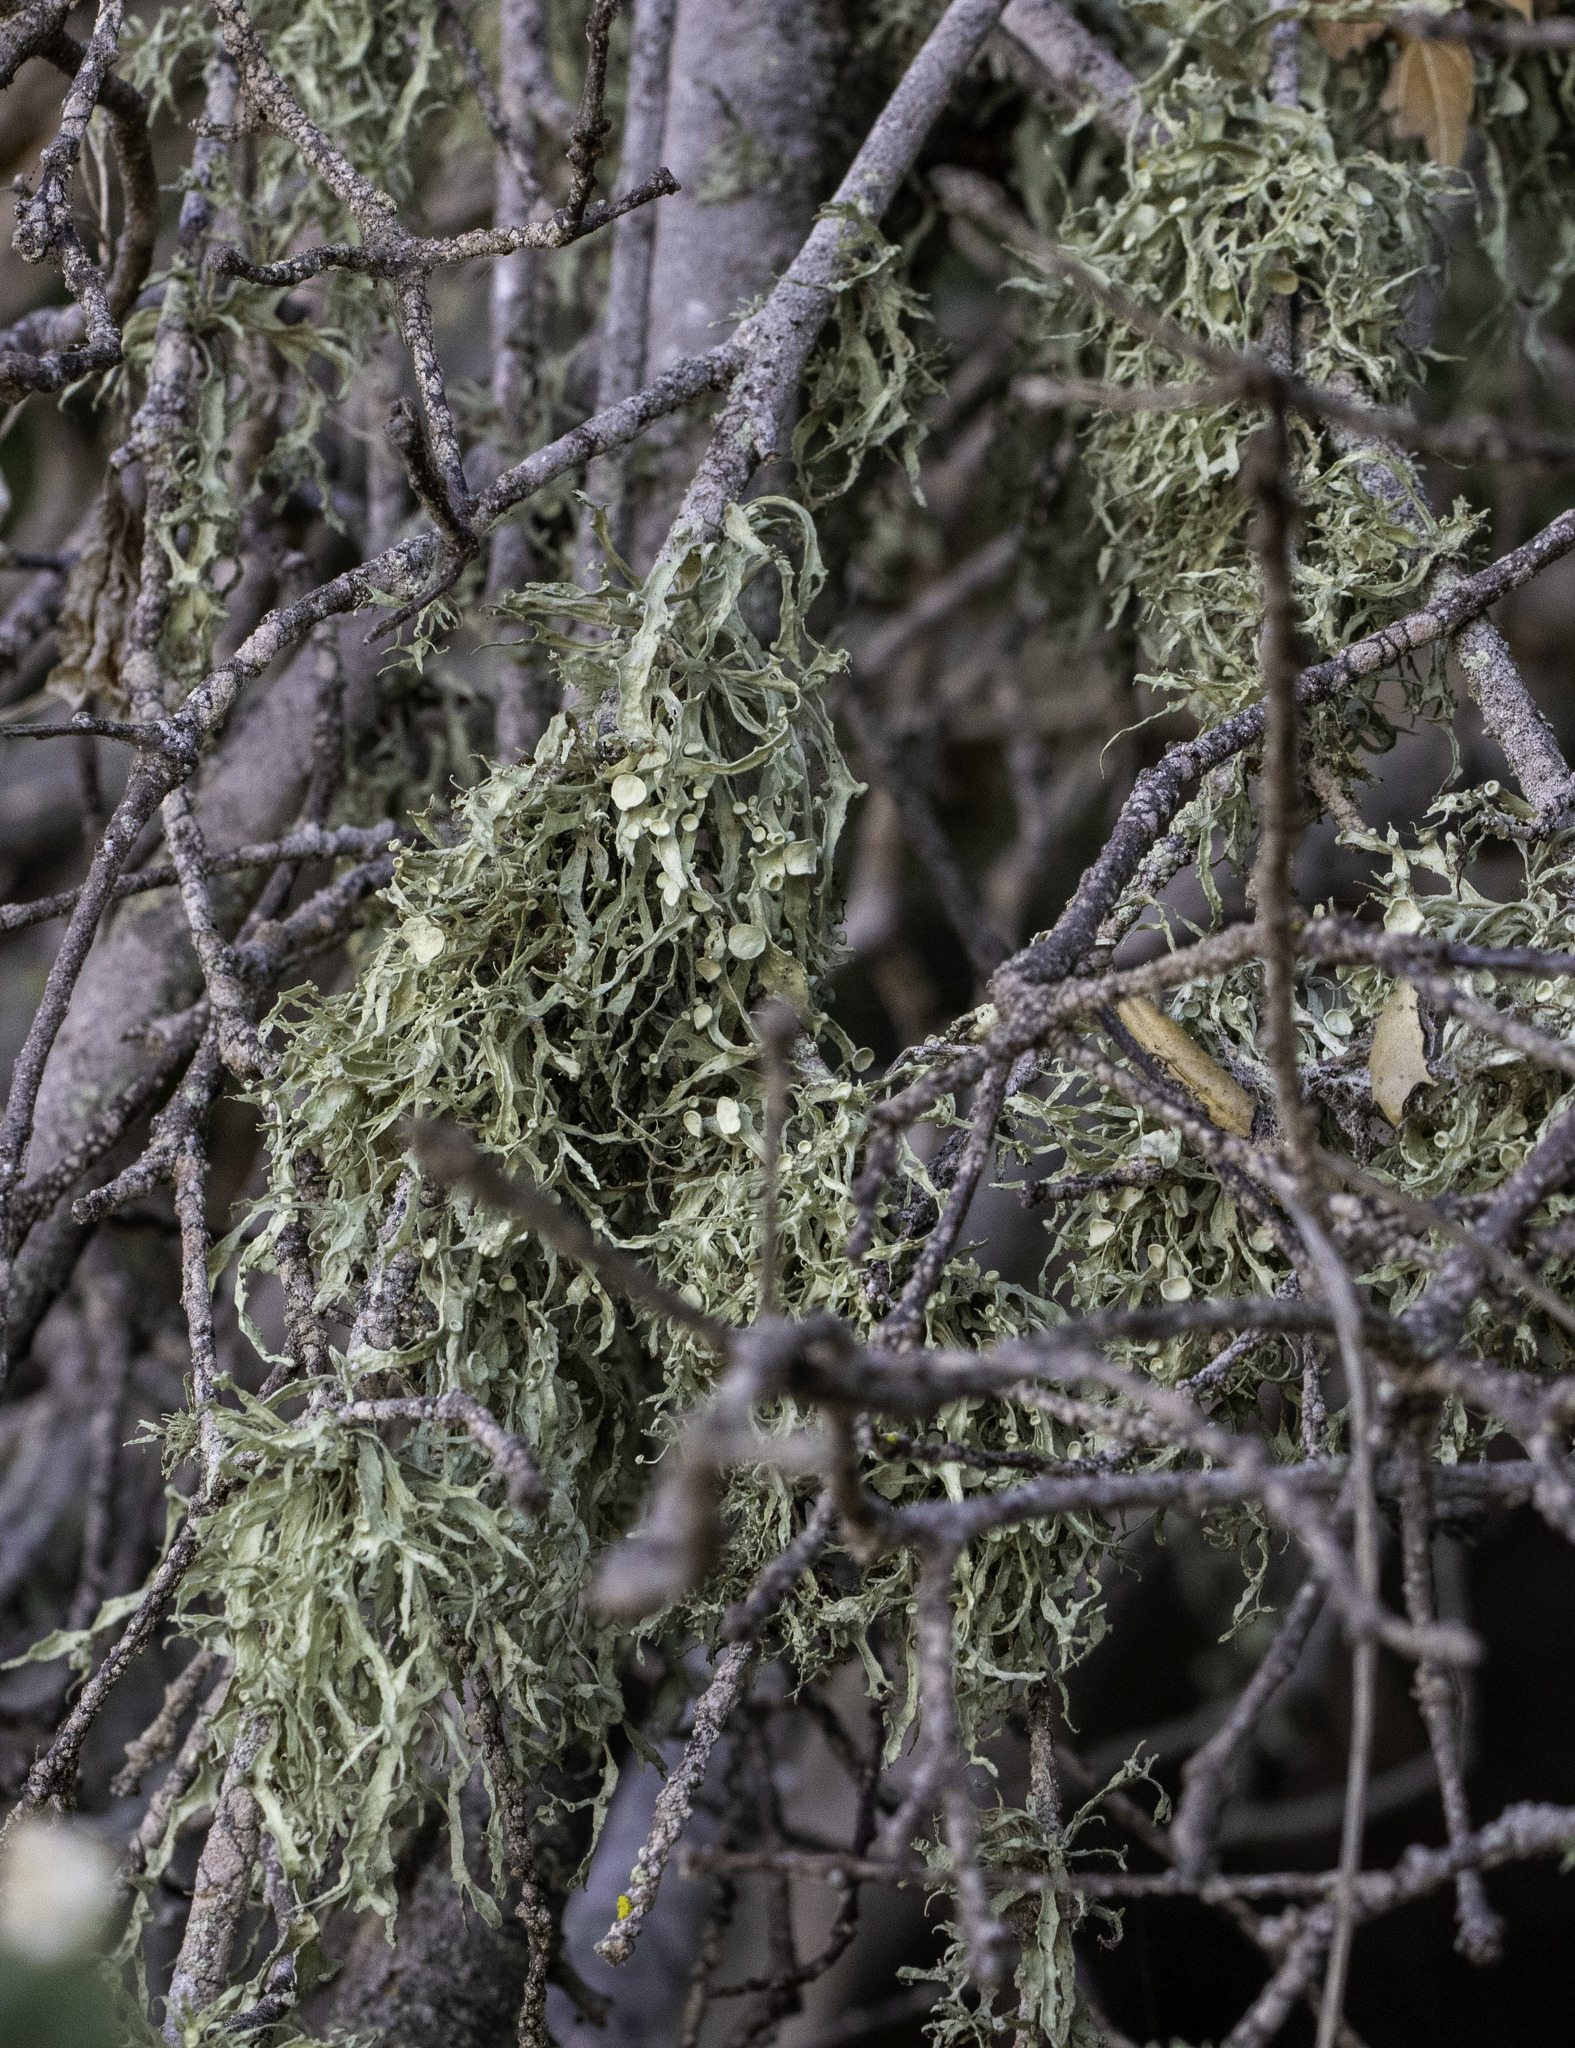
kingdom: Fungi
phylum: Ascomycota
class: Lecanoromycetes
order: Lecanorales
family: Ramalinaceae
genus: Ramalina
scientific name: Ramalina leptocarpha
